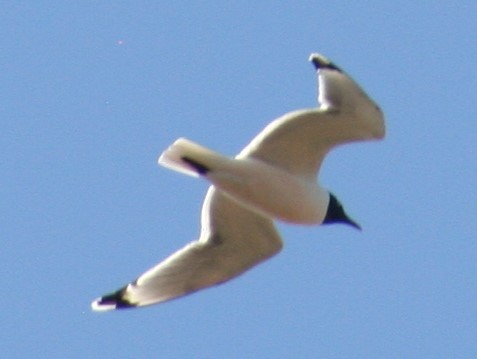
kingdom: Animalia
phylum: Chordata
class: Aves
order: Charadriiformes
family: Laridae
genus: Leucophaeus
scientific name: Leucophaeus pipixcan
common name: Franklin's gull
